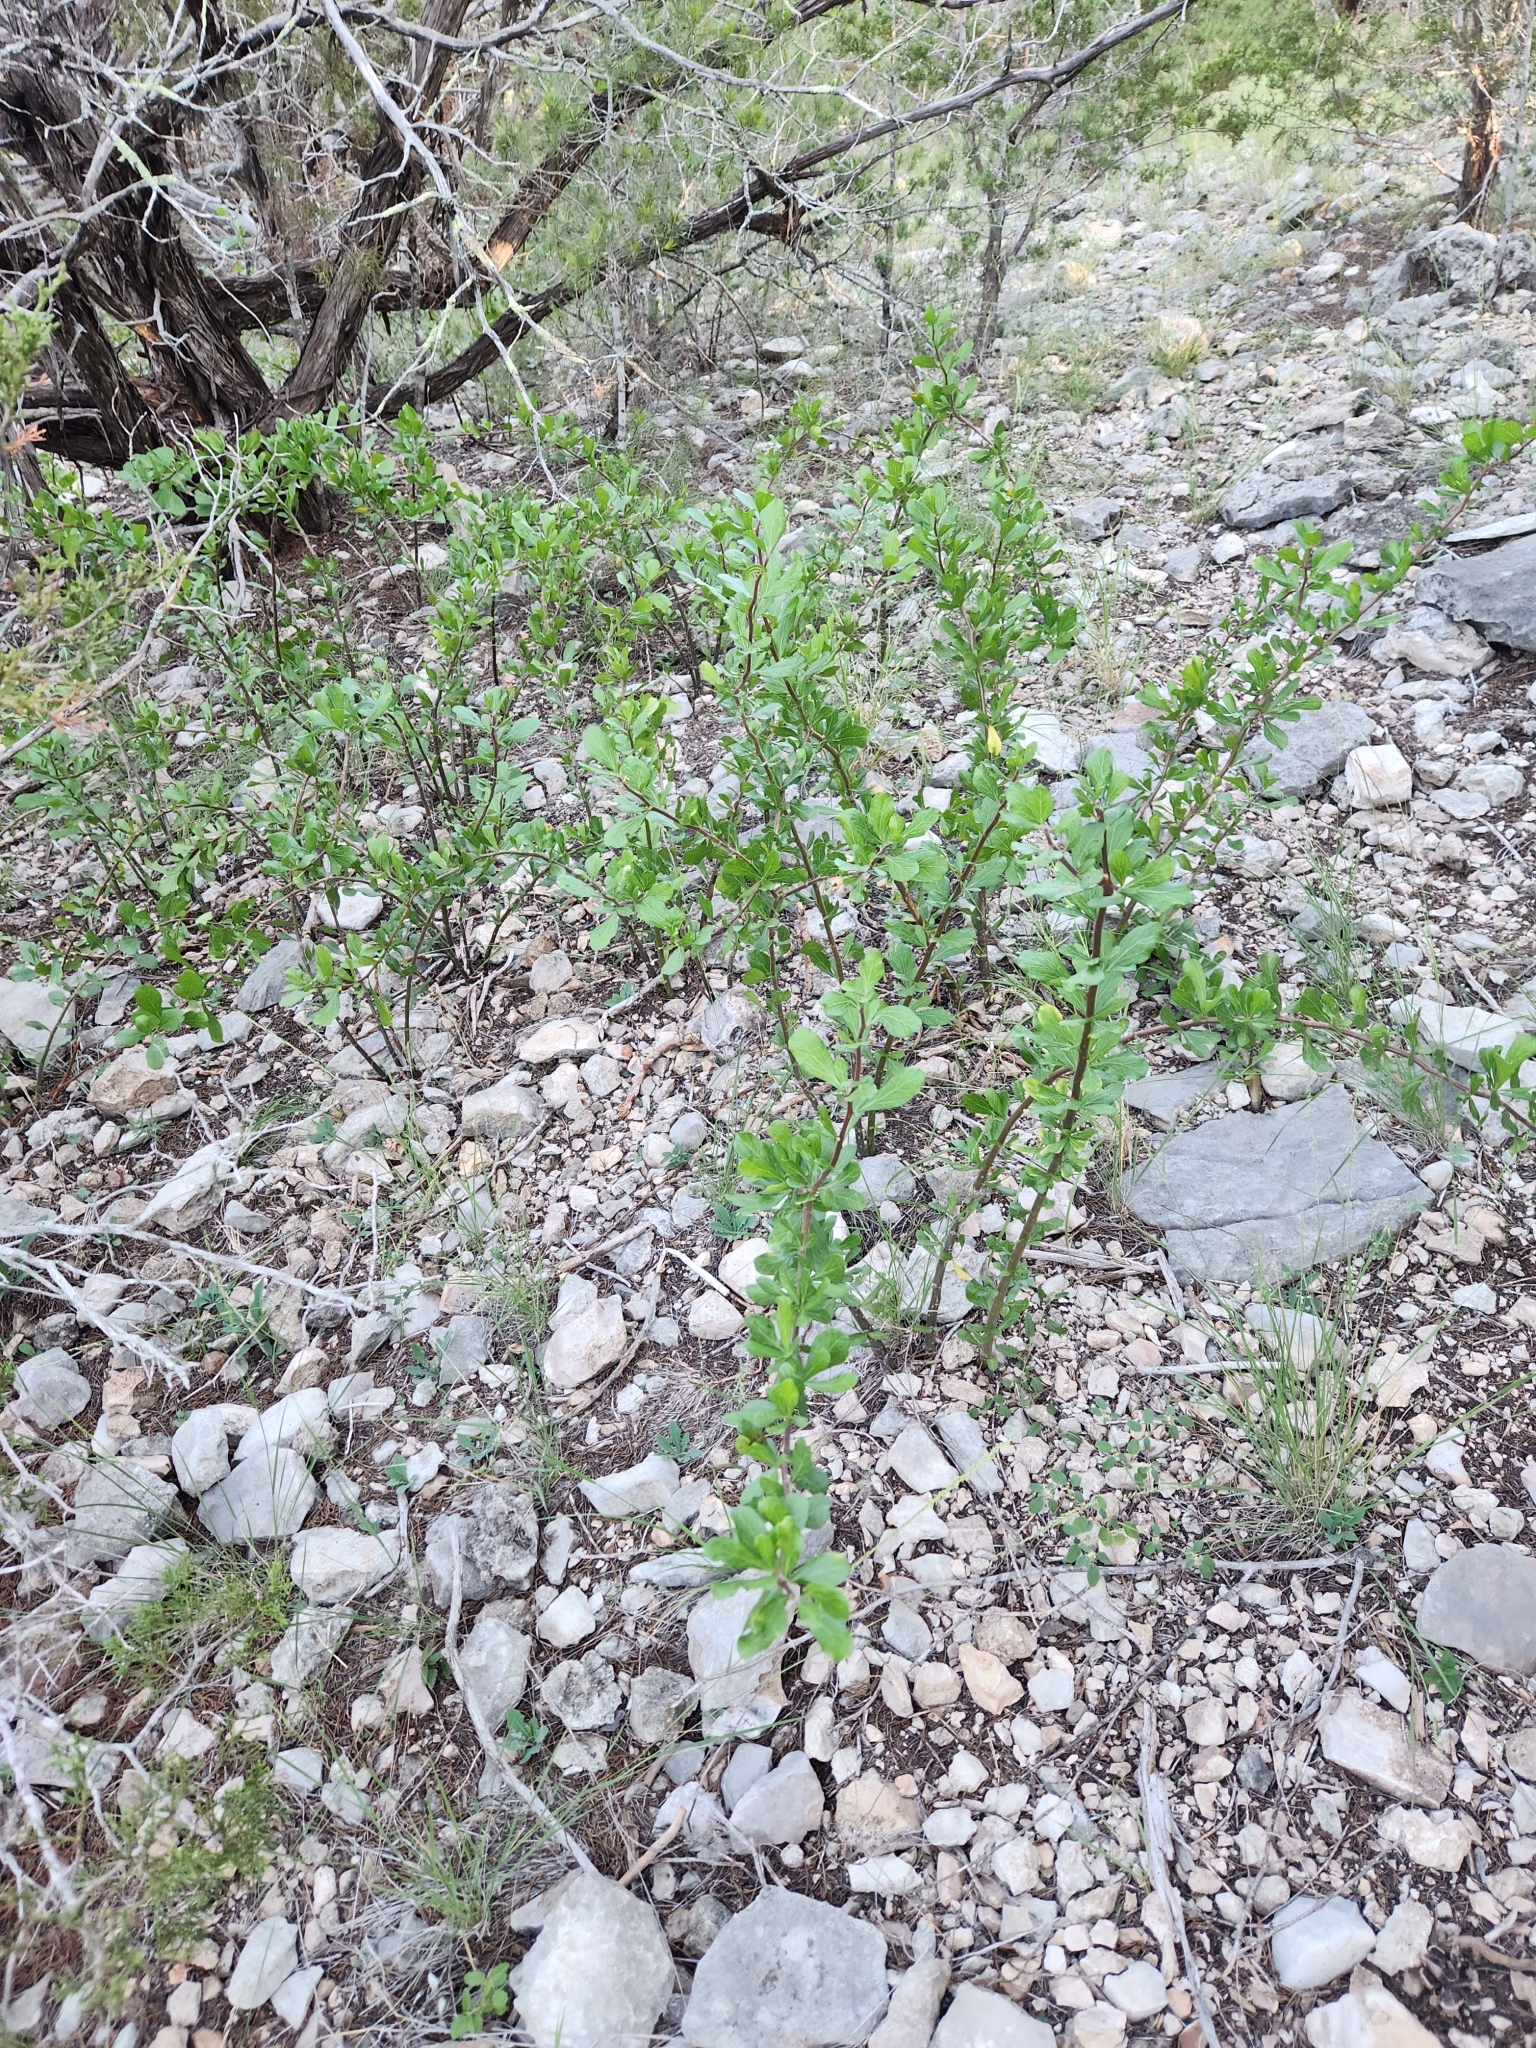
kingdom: Plantae
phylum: Tracheophyta
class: Magnoliopsida
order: Malpighiales
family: Euphorbiaceae
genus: Jatropha
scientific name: Jatropha dioica
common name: Leatherstem
